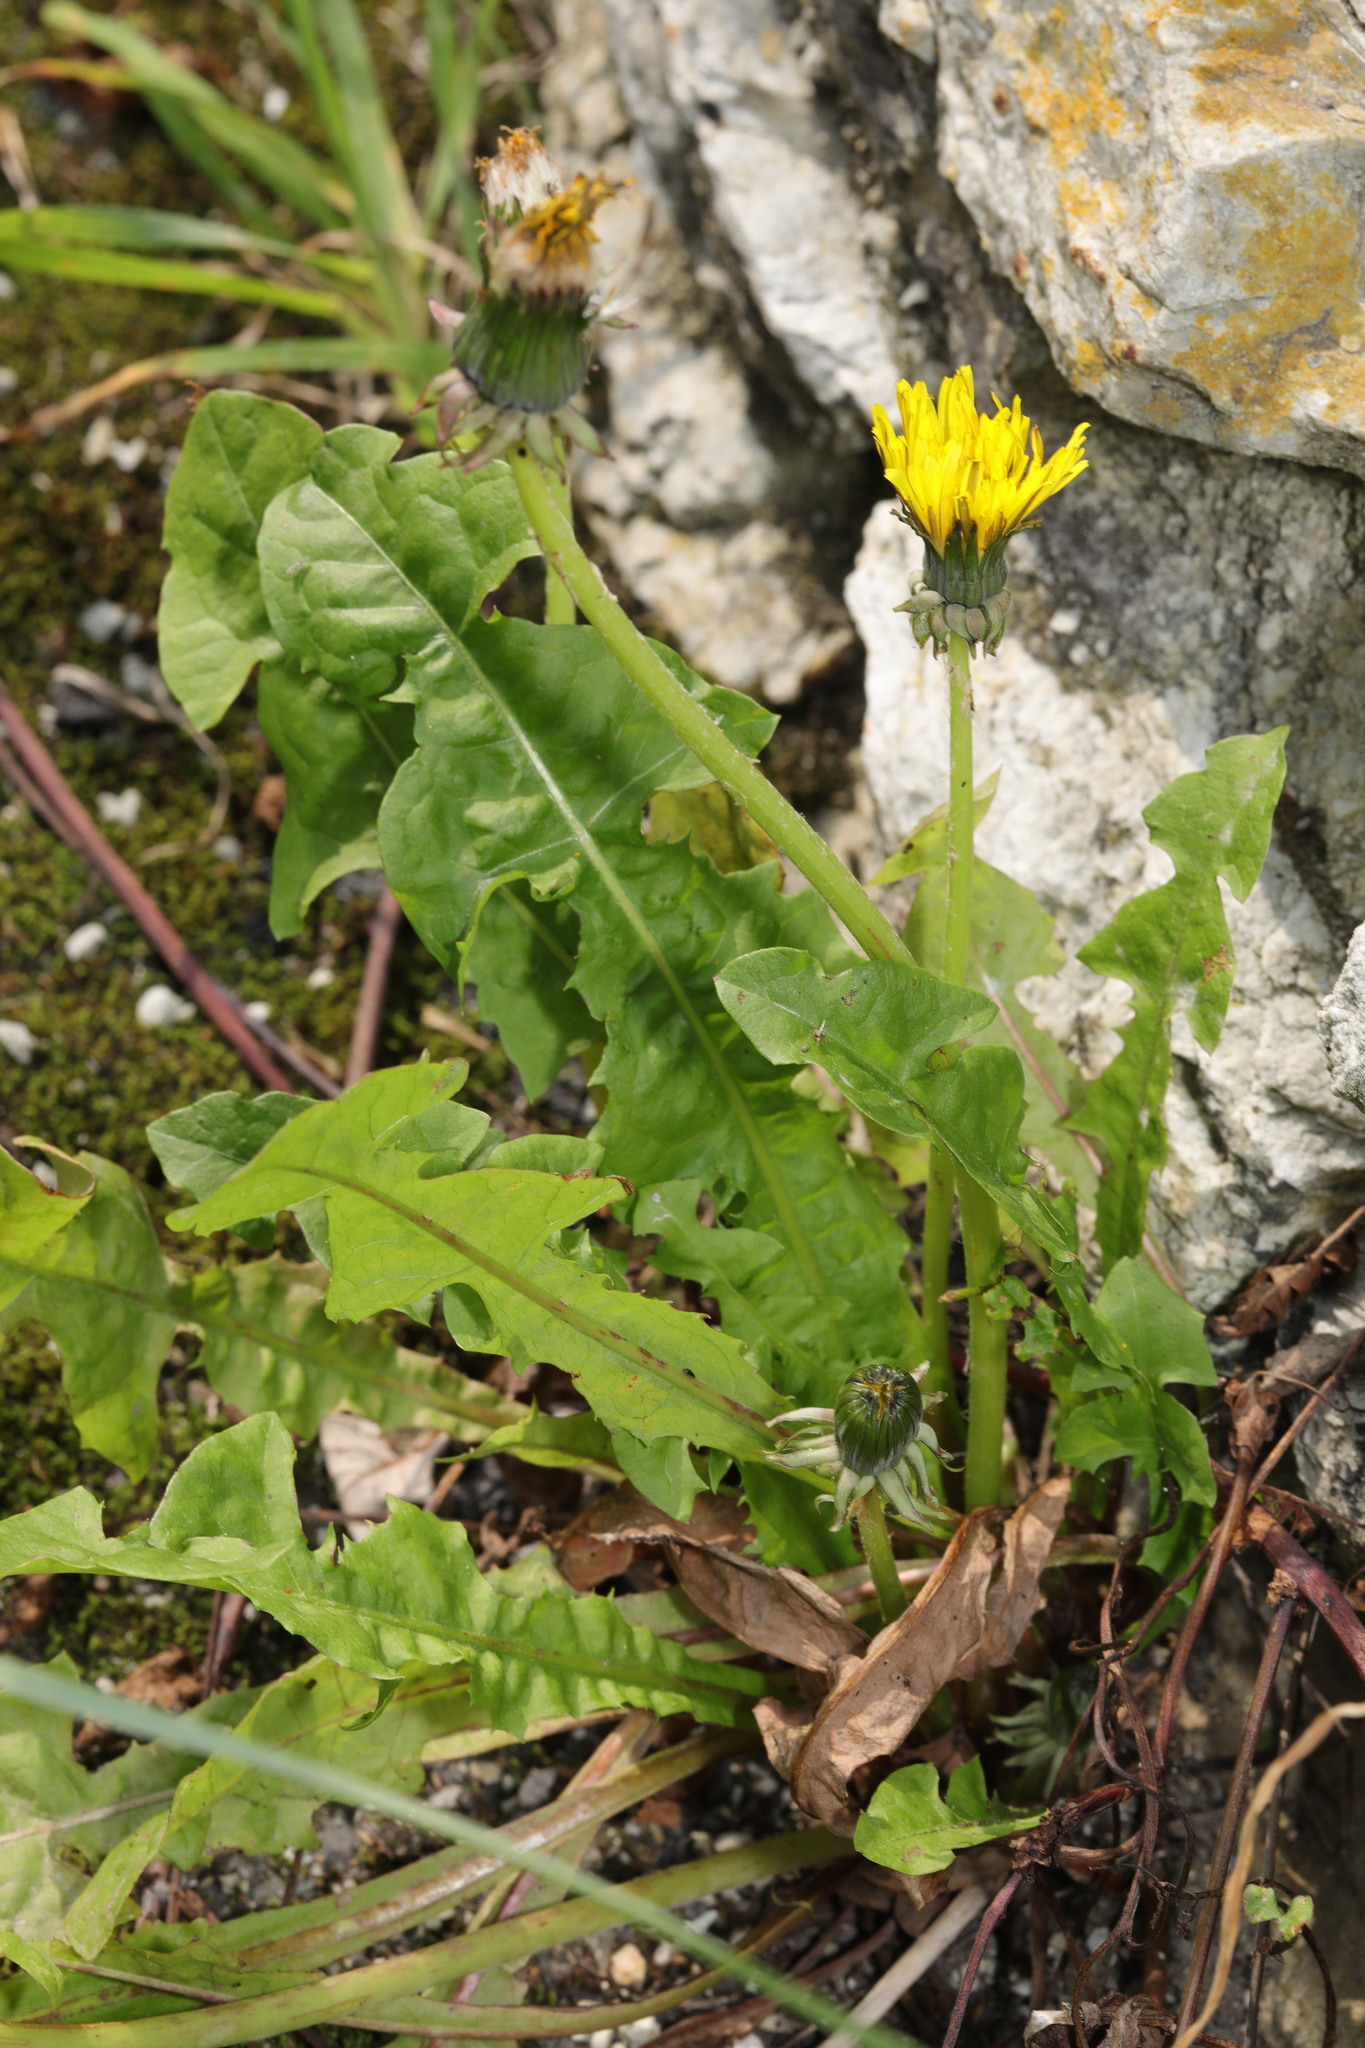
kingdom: Plantae
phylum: Tracheophyta
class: Magnoliopsida
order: Asterales
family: Asteraceae
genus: Taraxacum
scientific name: Taraxacum officinale
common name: Common dandelion
